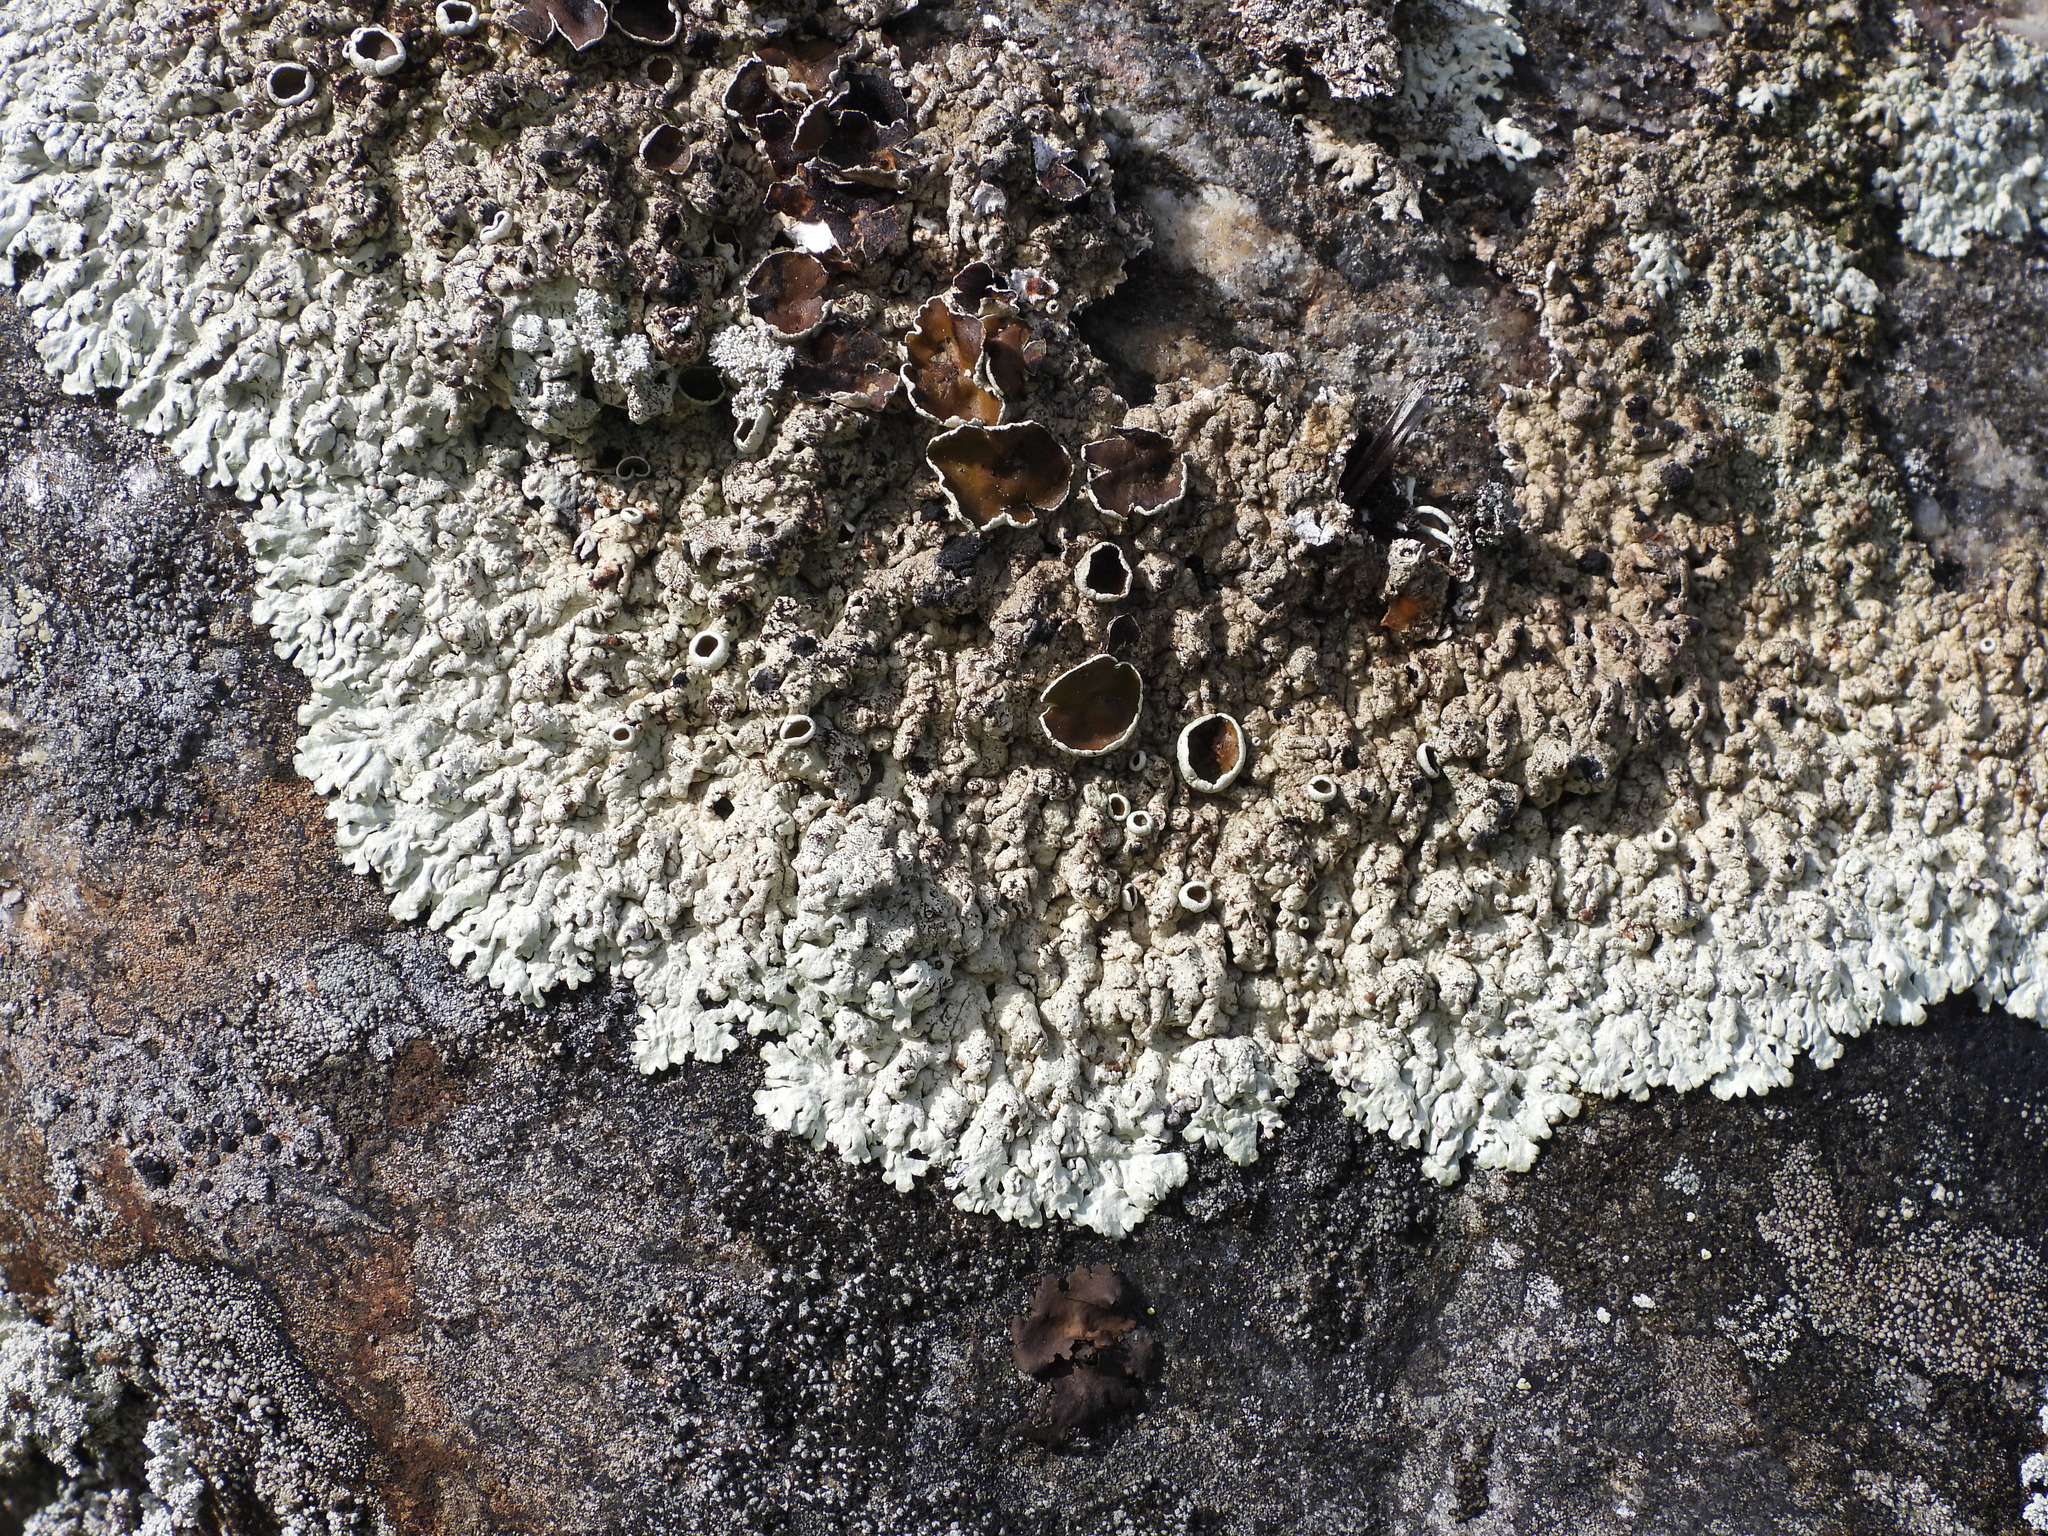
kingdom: Fungi
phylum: Ascomycota
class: Lecanoromycetes
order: Lecanorales
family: Parmeliaceae
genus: Arctoparmelia
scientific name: Arctoparmelia centrifuga
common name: Concentric ring lichen
